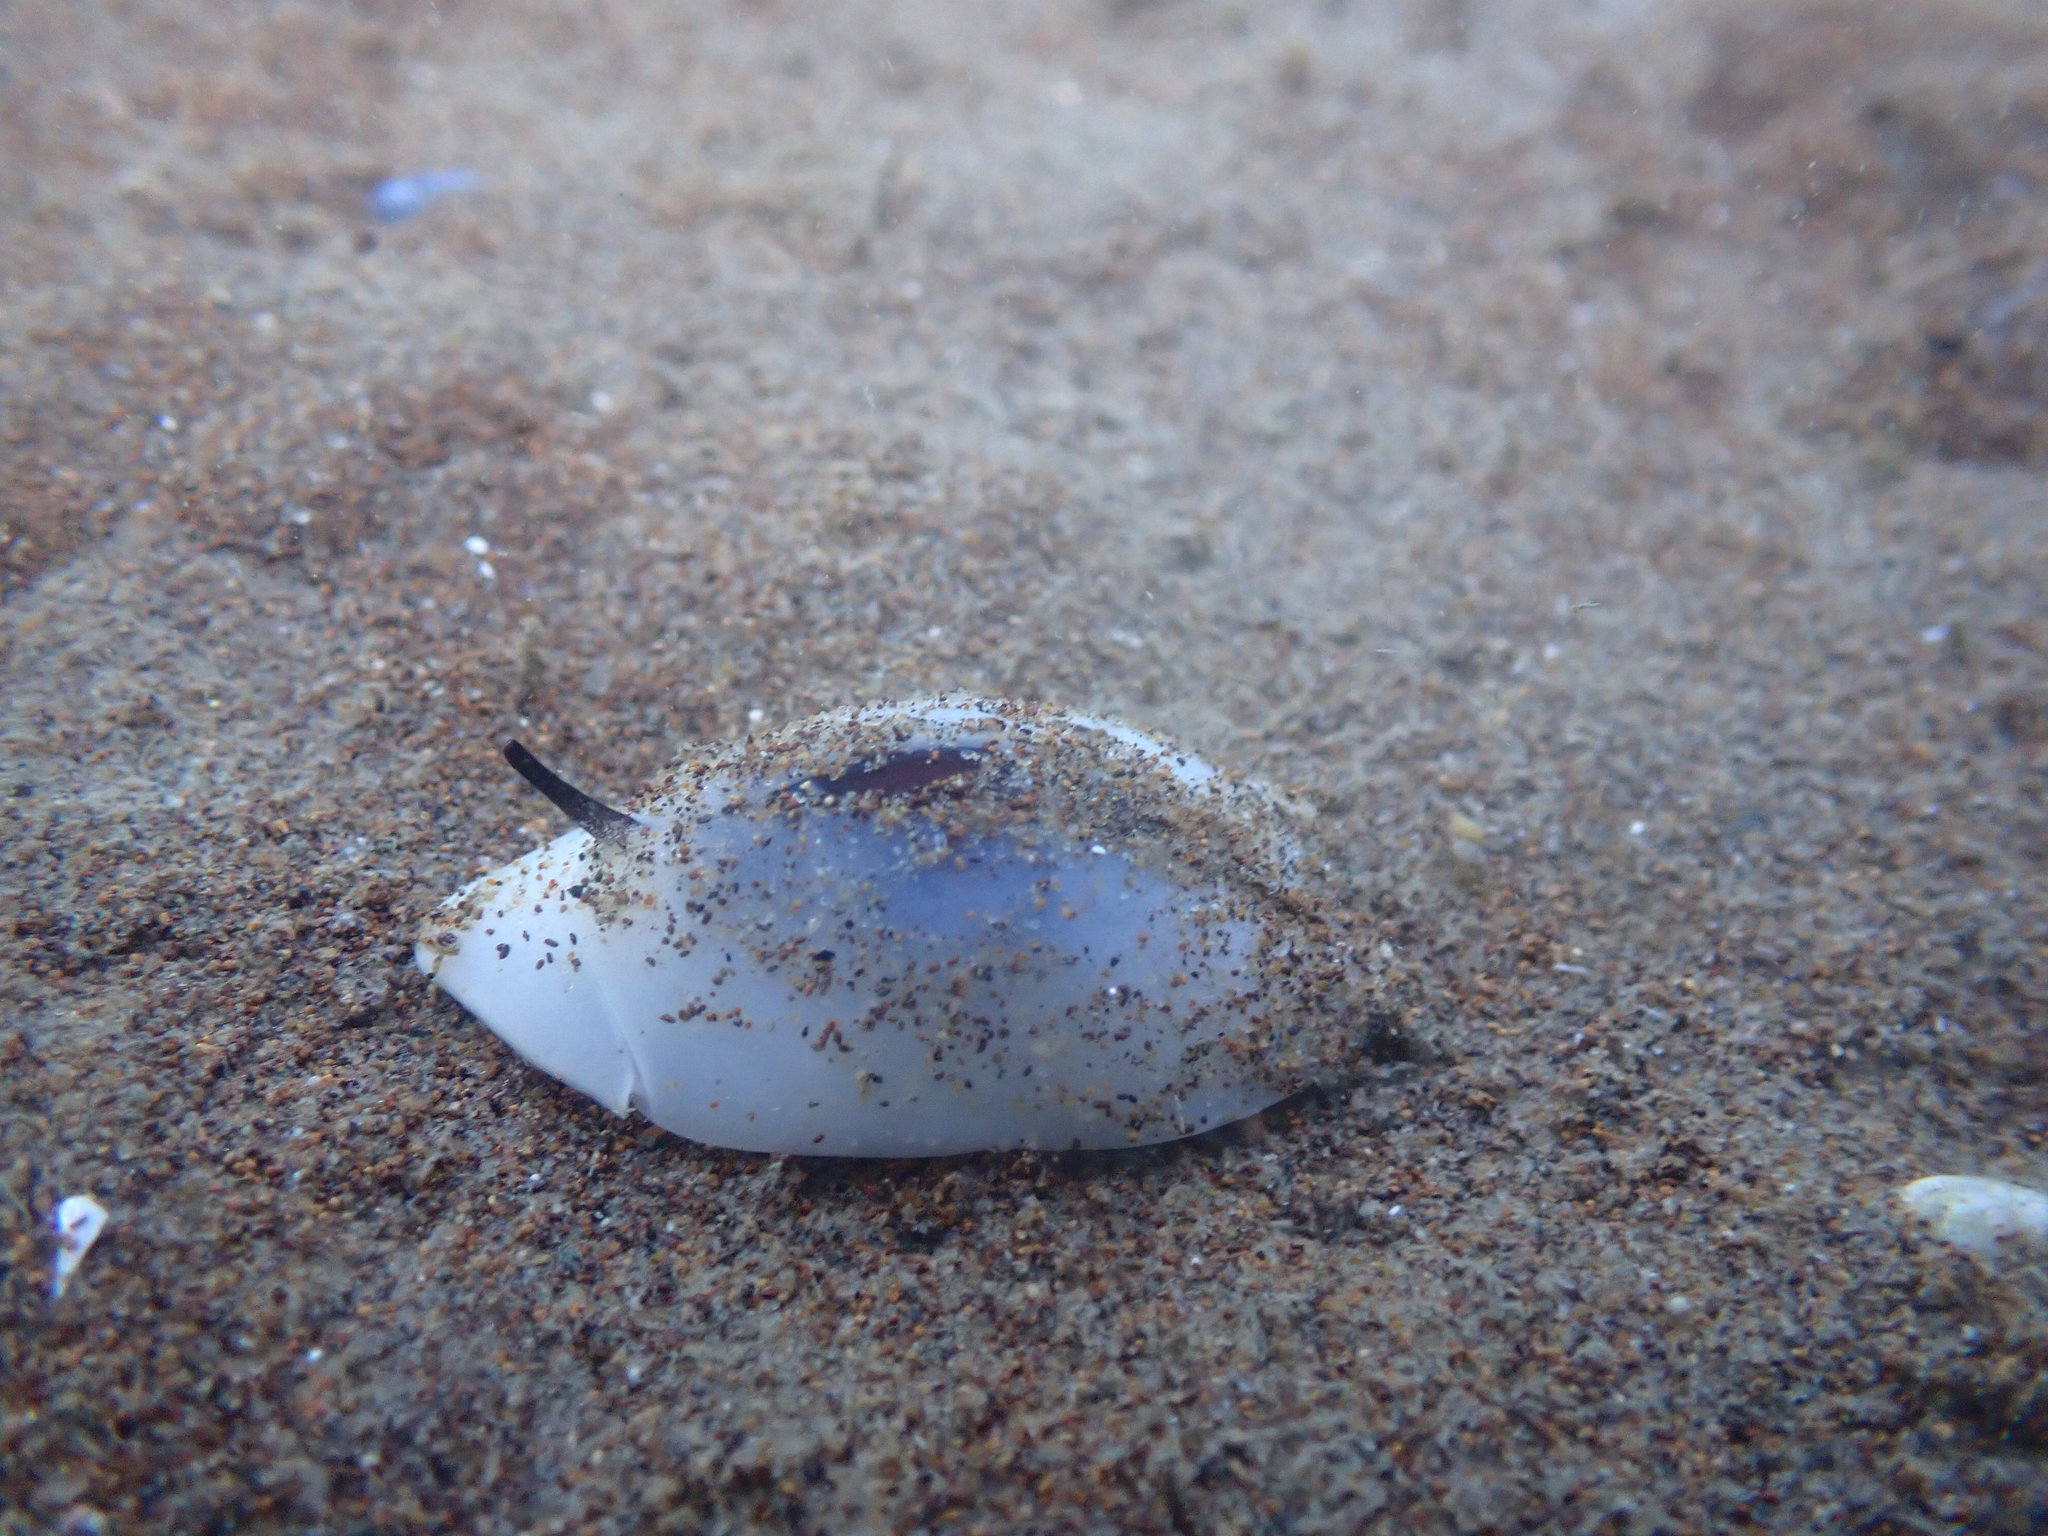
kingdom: Animalia
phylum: Mollusca
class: Gastropoda
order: Neogastropoda
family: Ancillariidae
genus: Amalda
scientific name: Amalda australis
